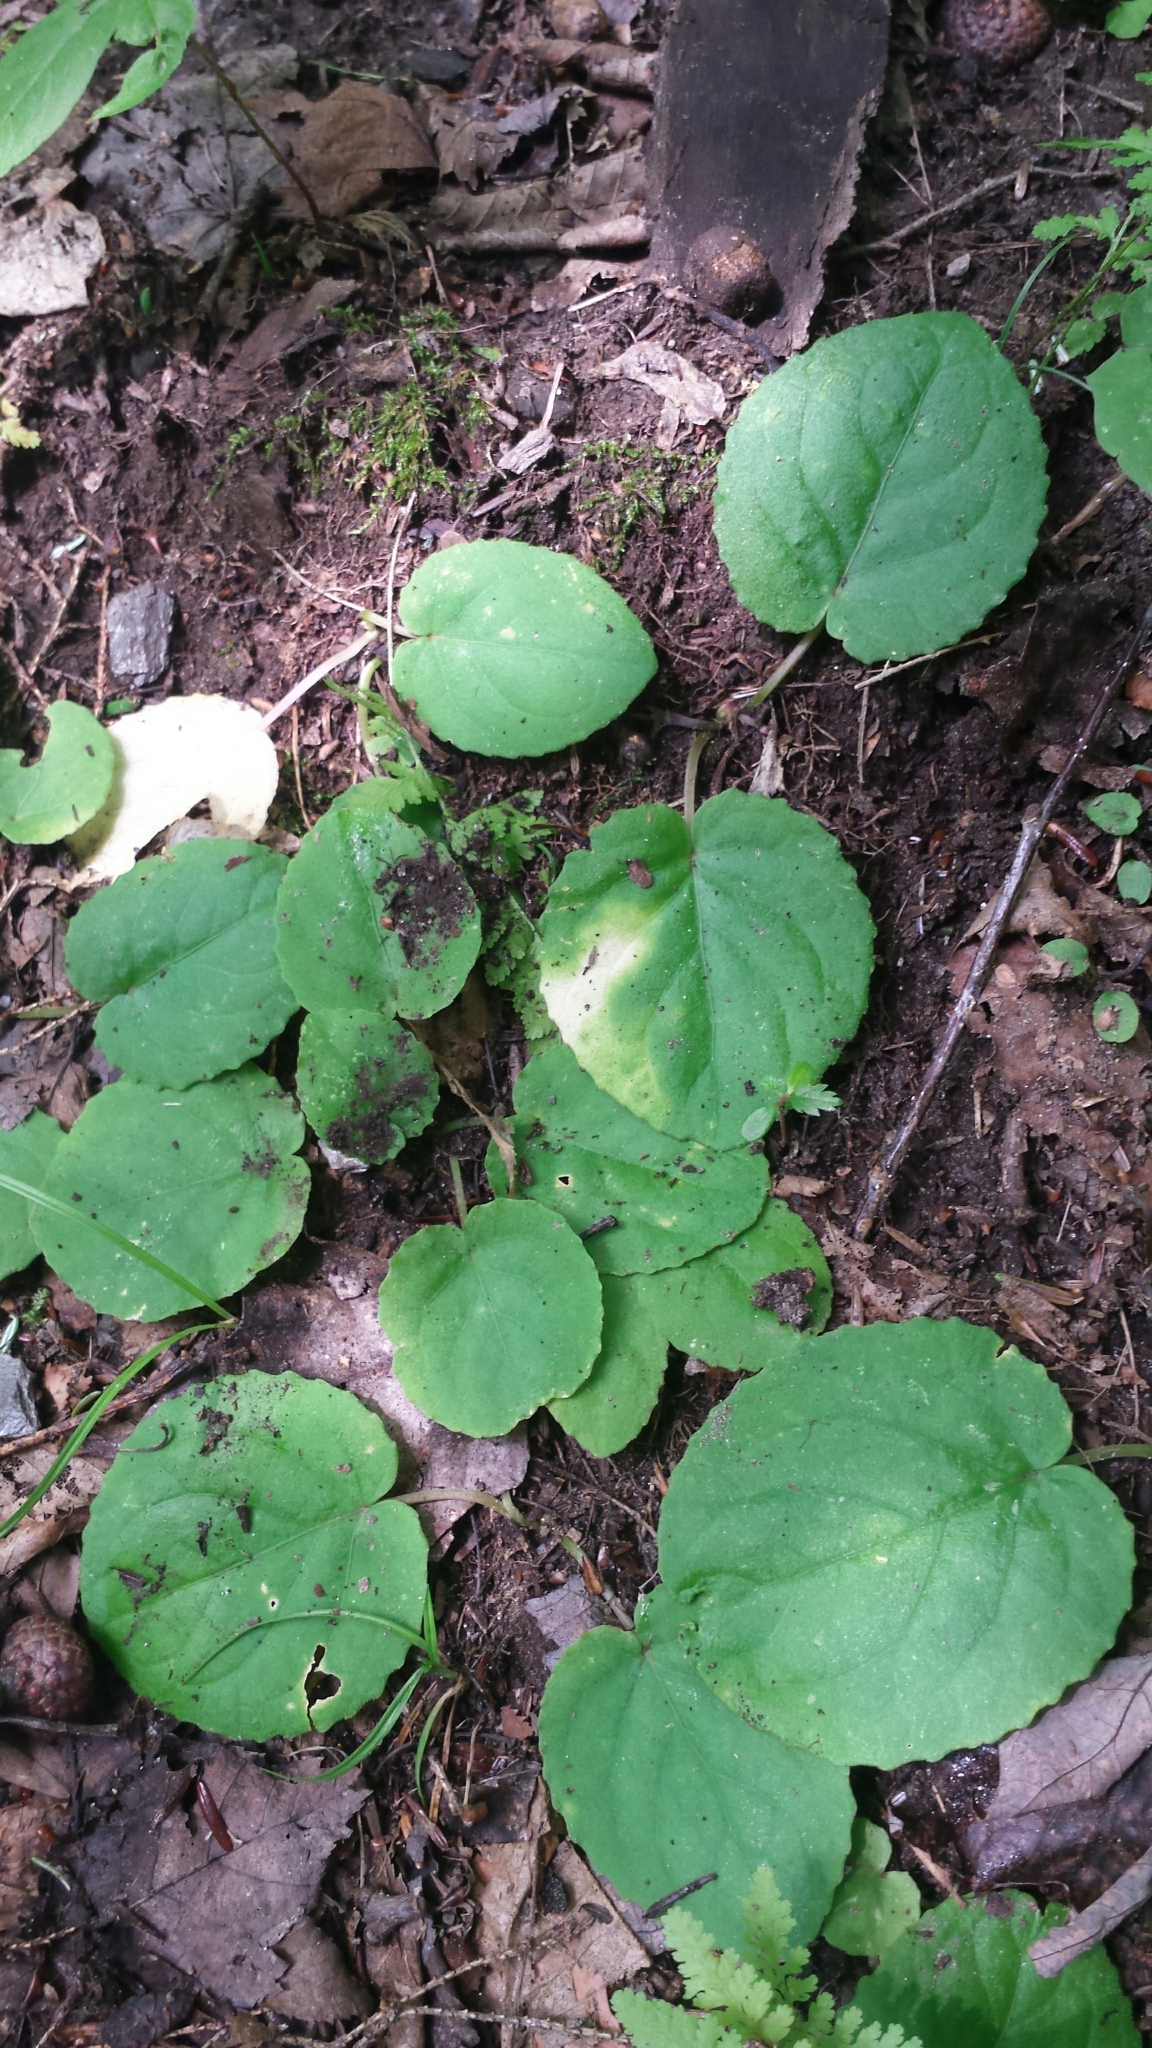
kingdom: Plantae
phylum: Tracheophyta
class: Magnoliopsida
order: Malpighiales
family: Violaceae
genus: Viola
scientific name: Viola rotundifolia
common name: Early yellow violet
